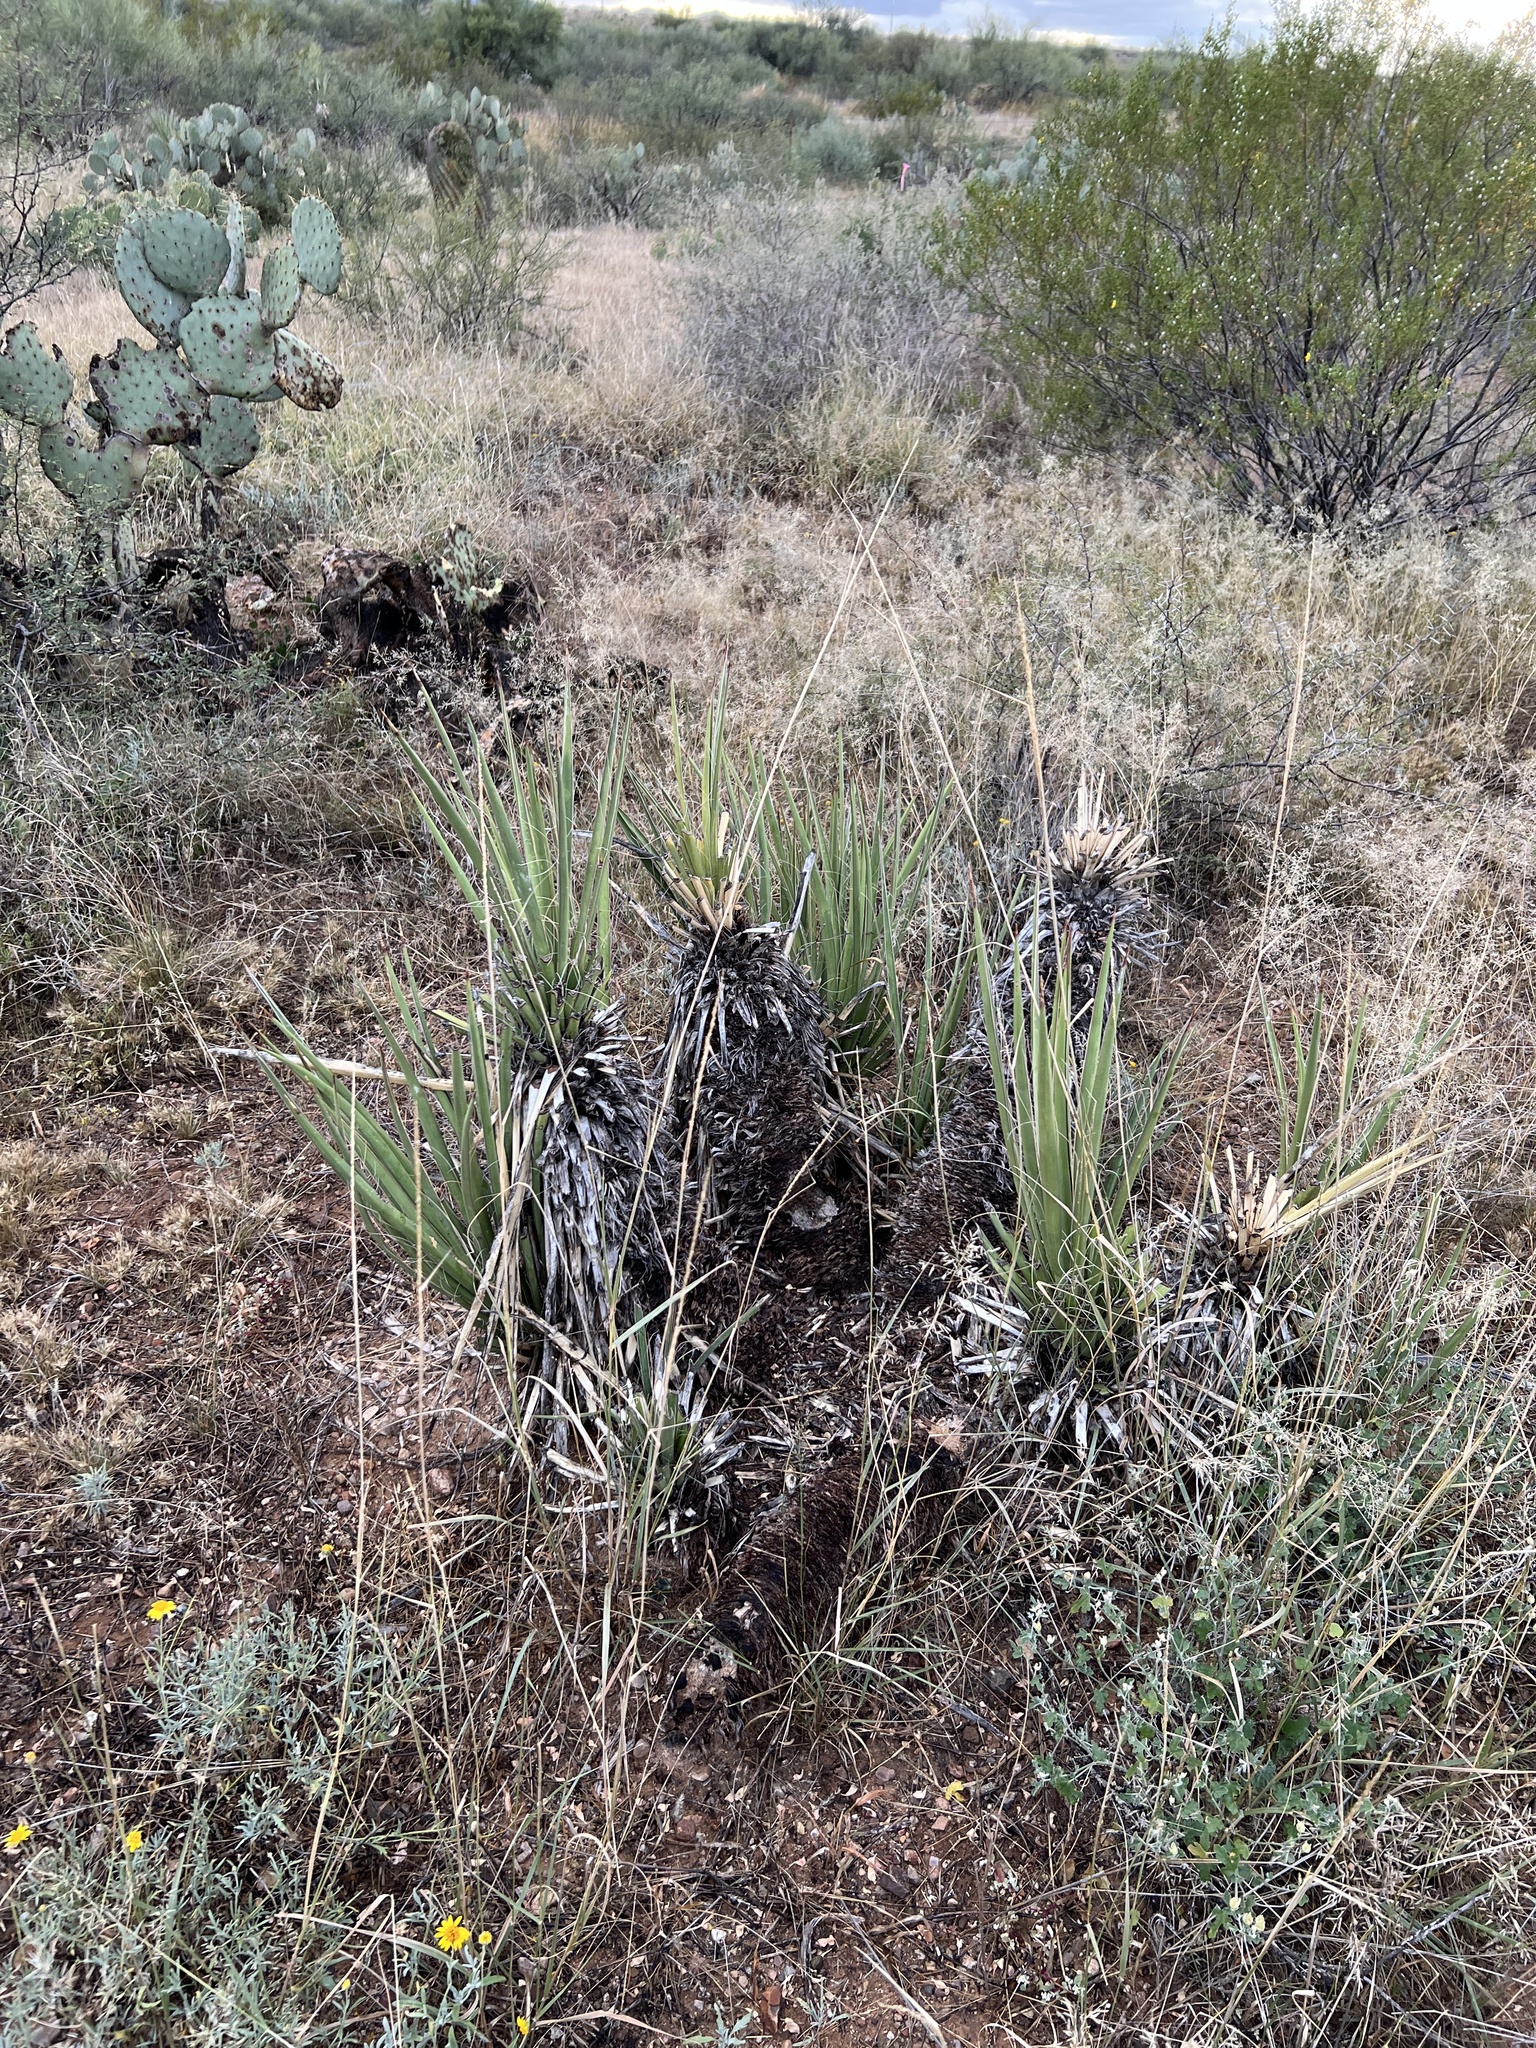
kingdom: Plantae
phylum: Tracheophyta
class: Liliopsida
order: Asparagales
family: Asparagaceae
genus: Yucca
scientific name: Yucca baccata
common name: Banana yucca
